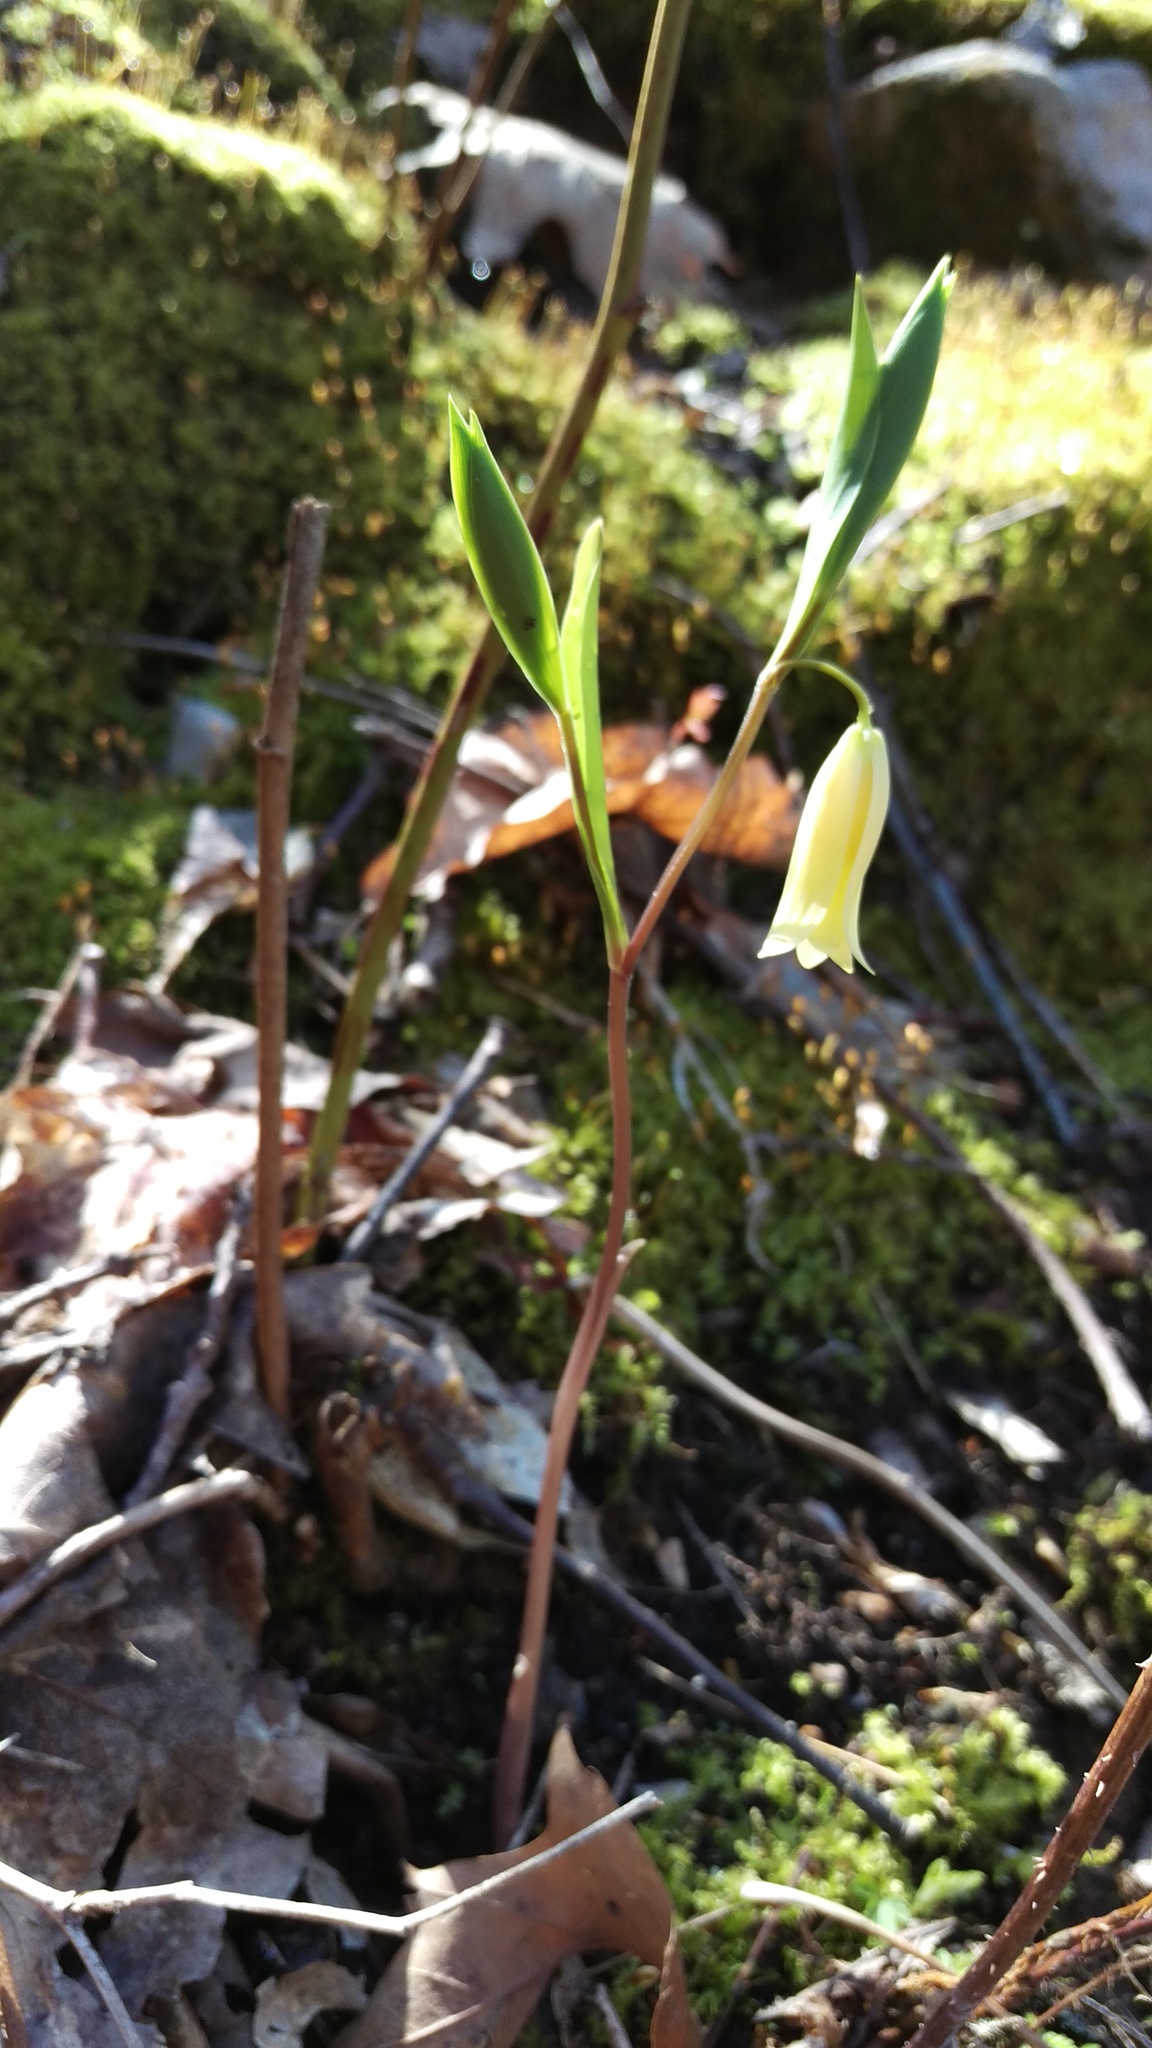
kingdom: Plantae
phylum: Tracheophyta
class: Liliopsida
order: Liliales
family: Colchicaceae
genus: Uvularia
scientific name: Uvularia puberula
